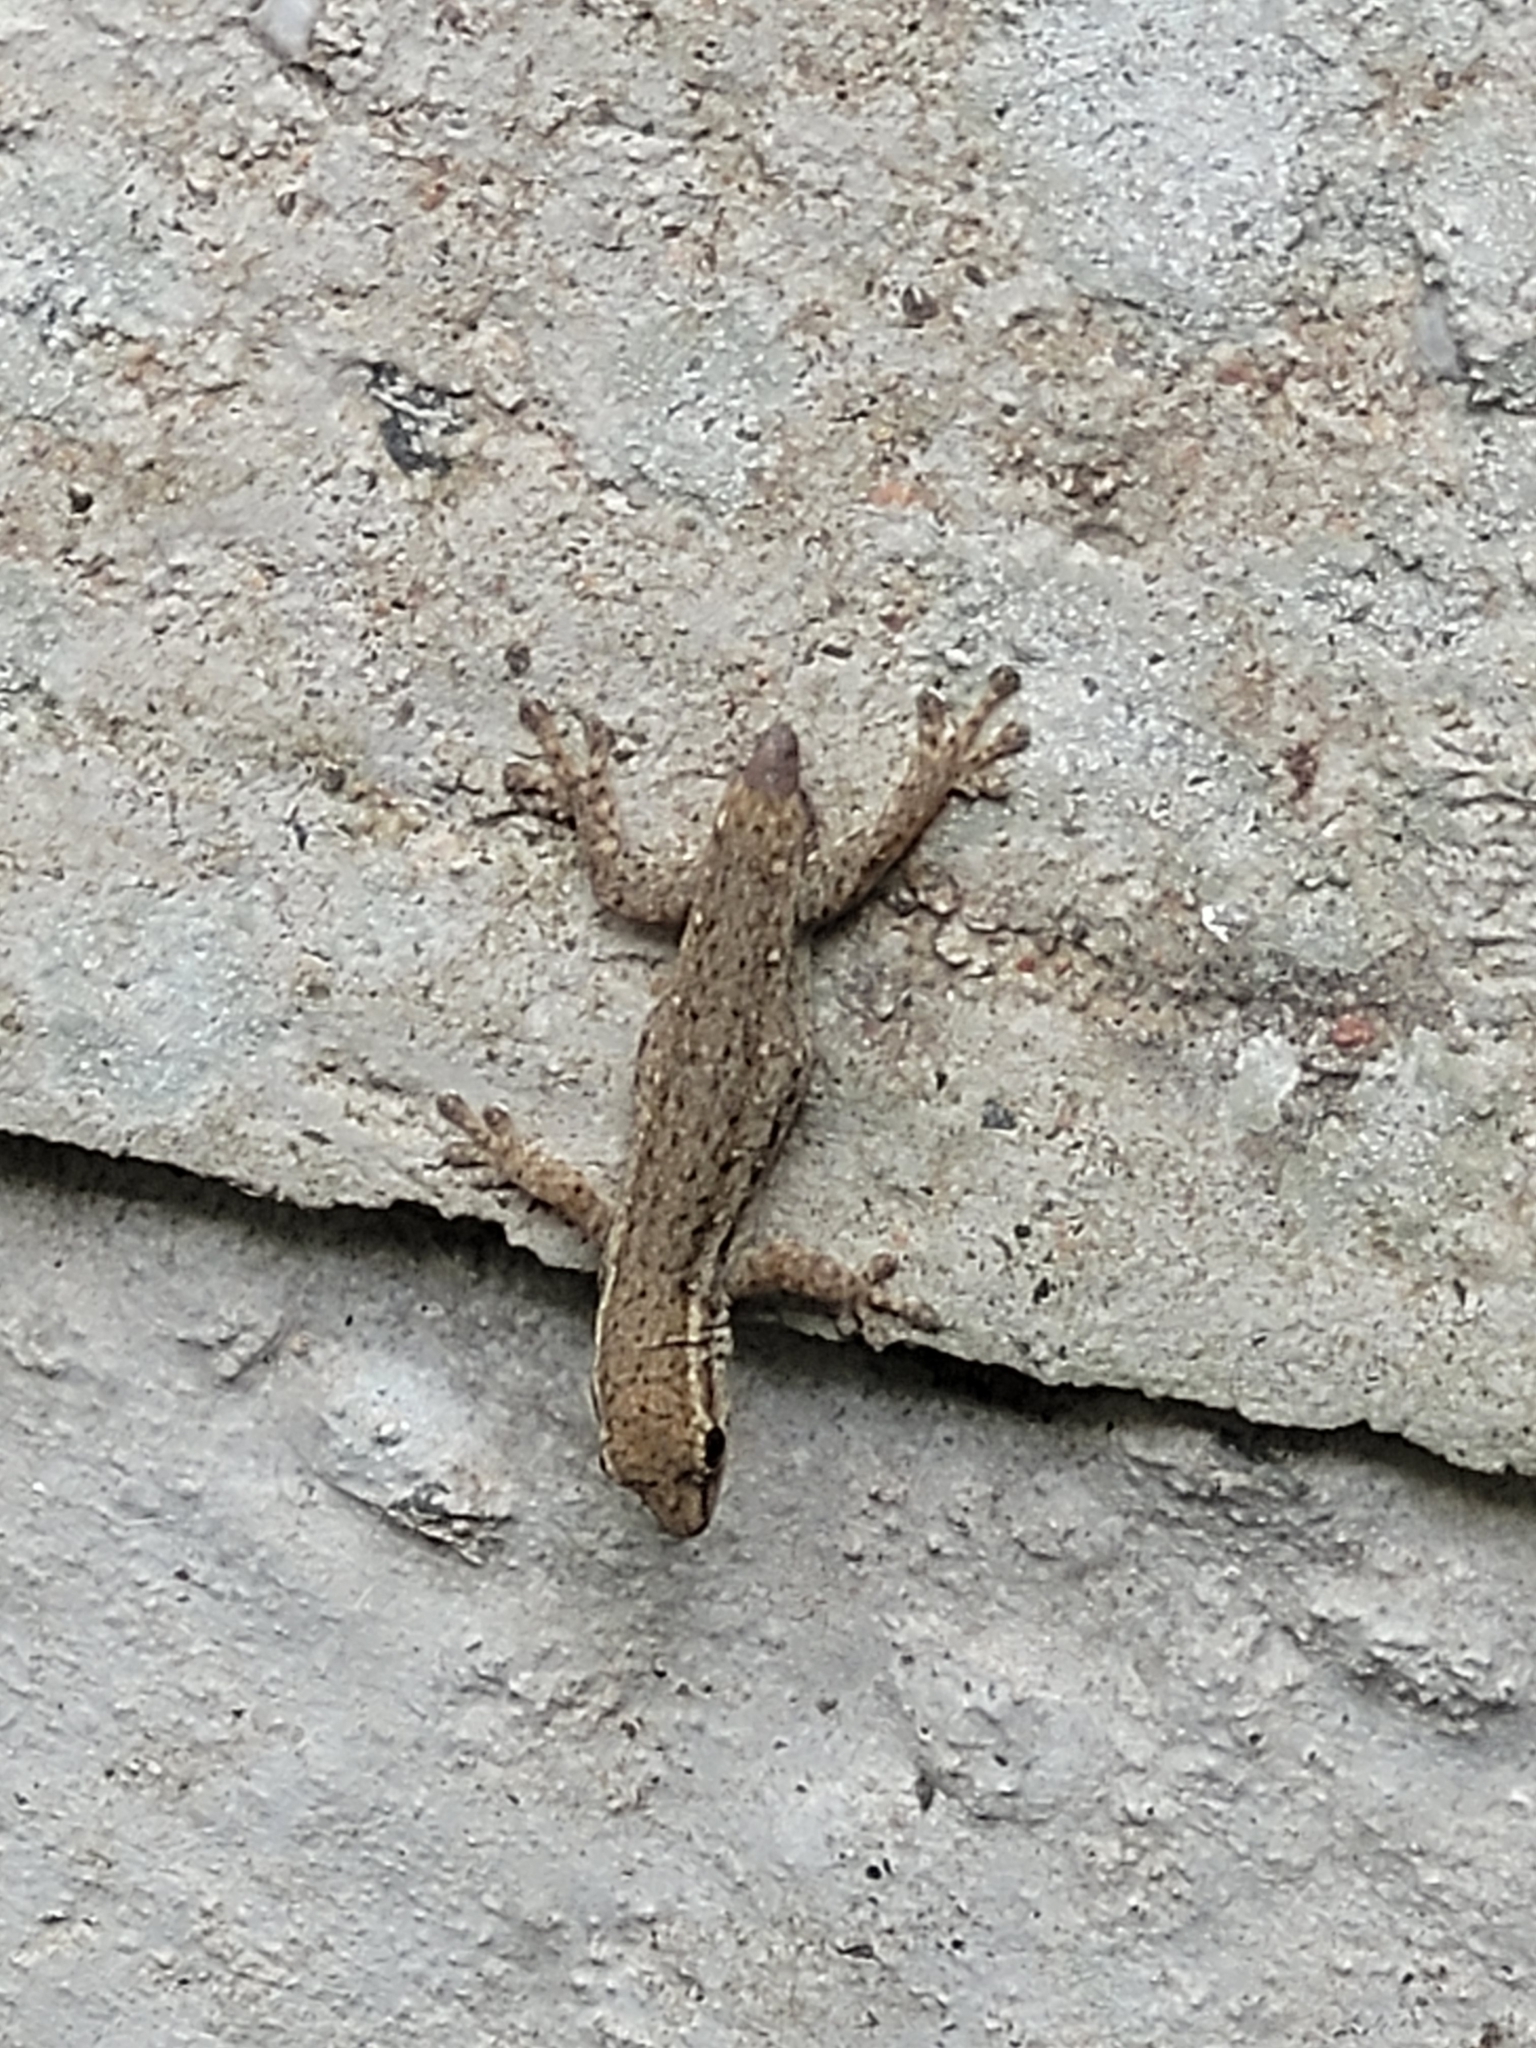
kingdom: Animalia
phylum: Chordata
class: Squamata
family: Gekkonidae
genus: Lygodactylus
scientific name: Lygodactylus capensis
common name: Cape dwarf gecko
